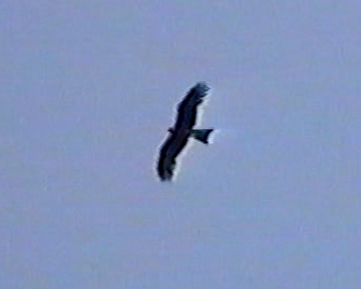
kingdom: Animalia
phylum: Chordata
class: Aves
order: Accipitriformes
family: Accipitridae
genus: Milvus
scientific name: Milvus migrans
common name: Black kite
